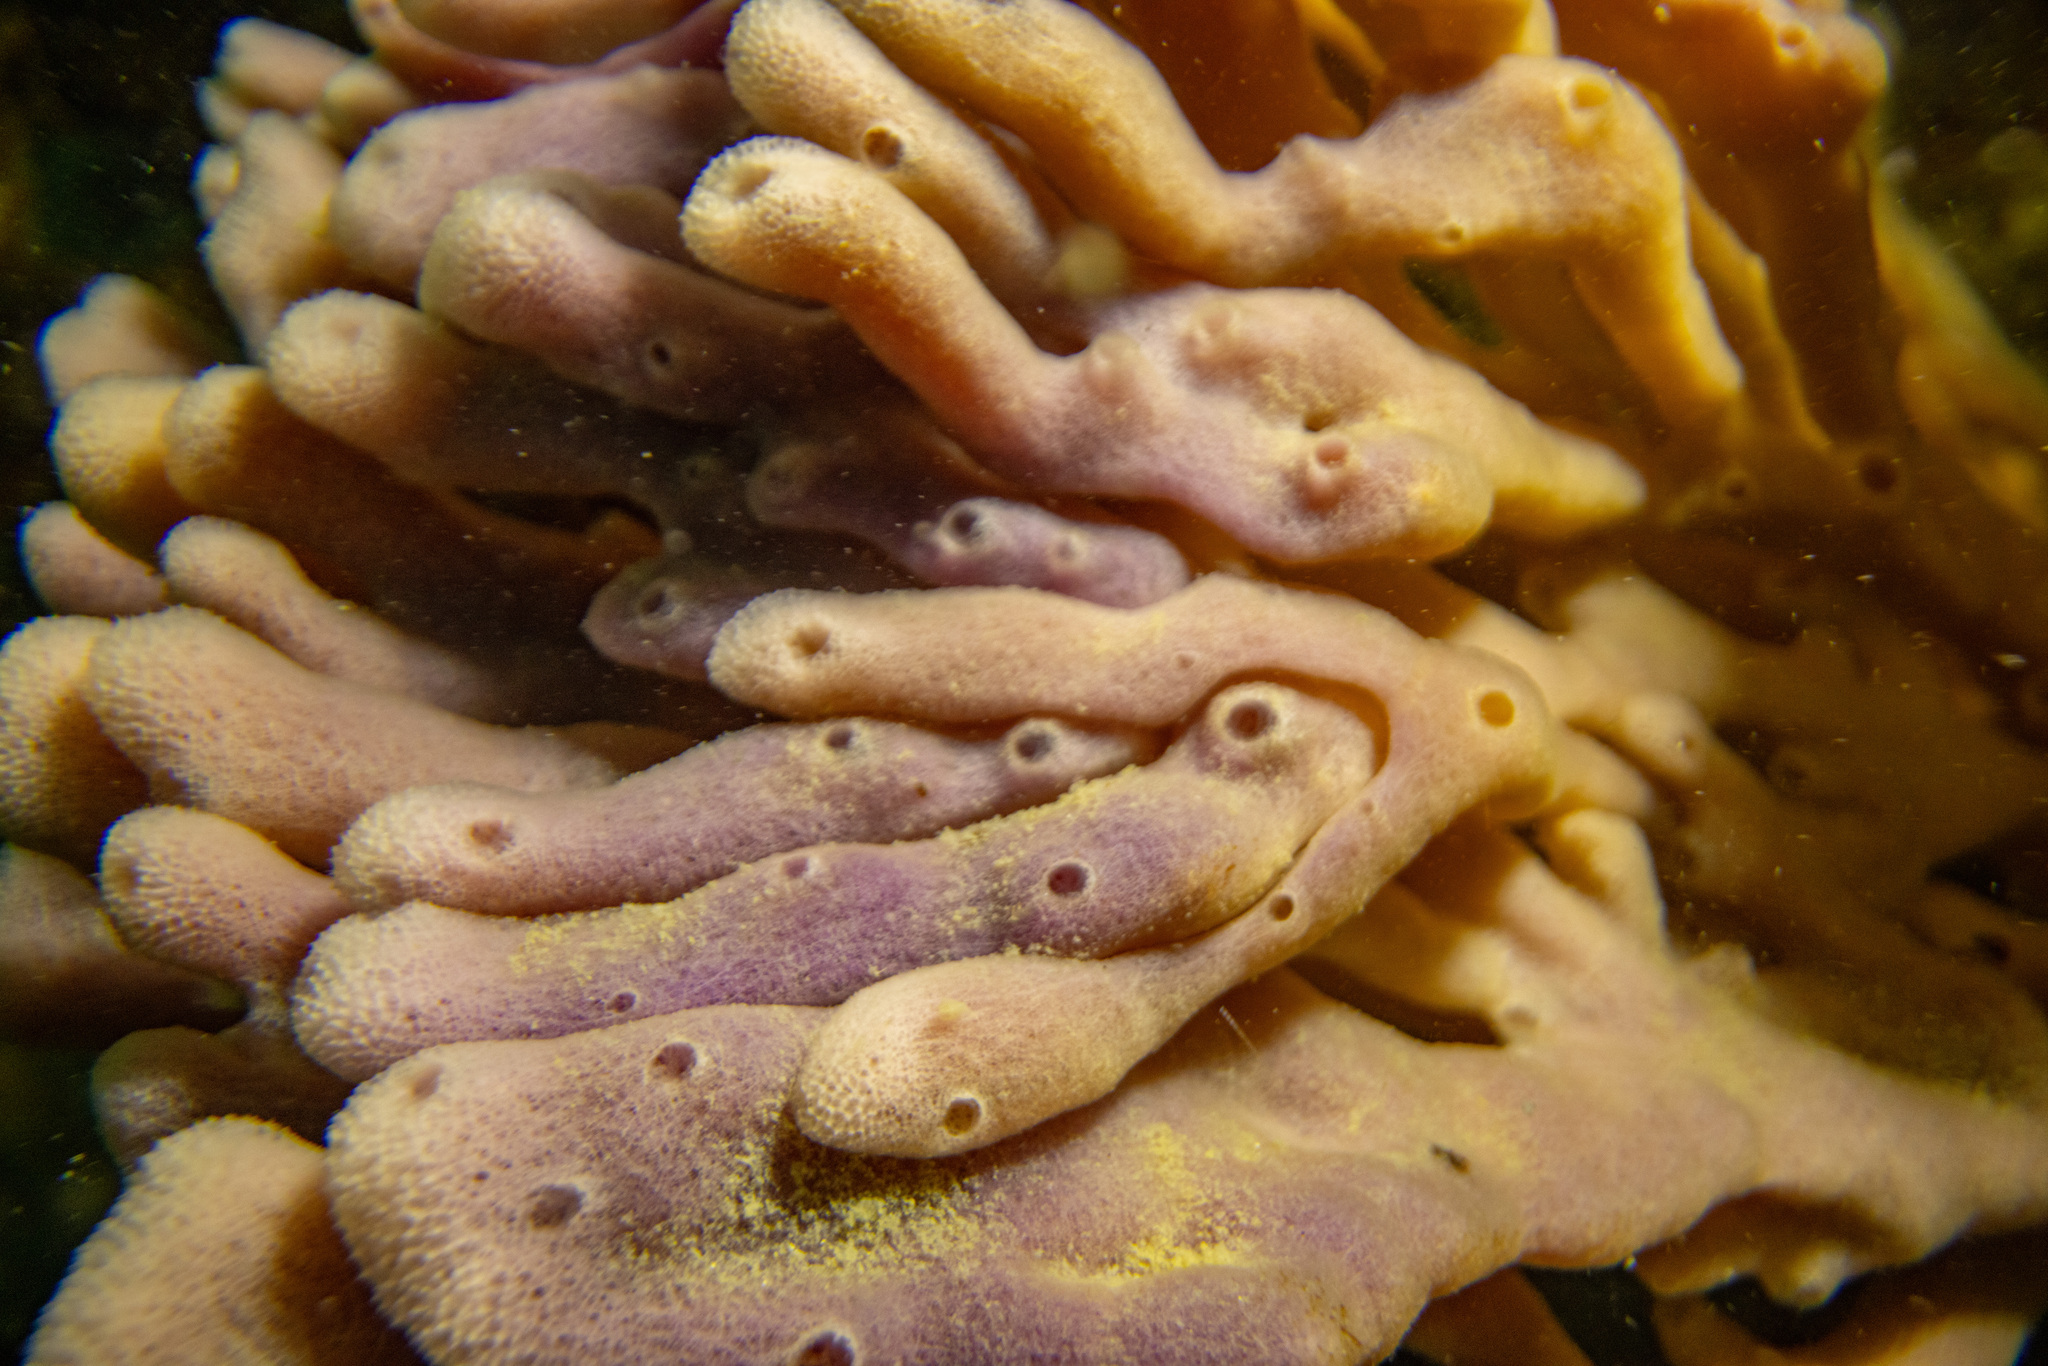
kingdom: Animalia
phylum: Porifera
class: Demospongiae
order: Haplosclerida
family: Callyspongiidae
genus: Callyspongia
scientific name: Callyspongia nuda
